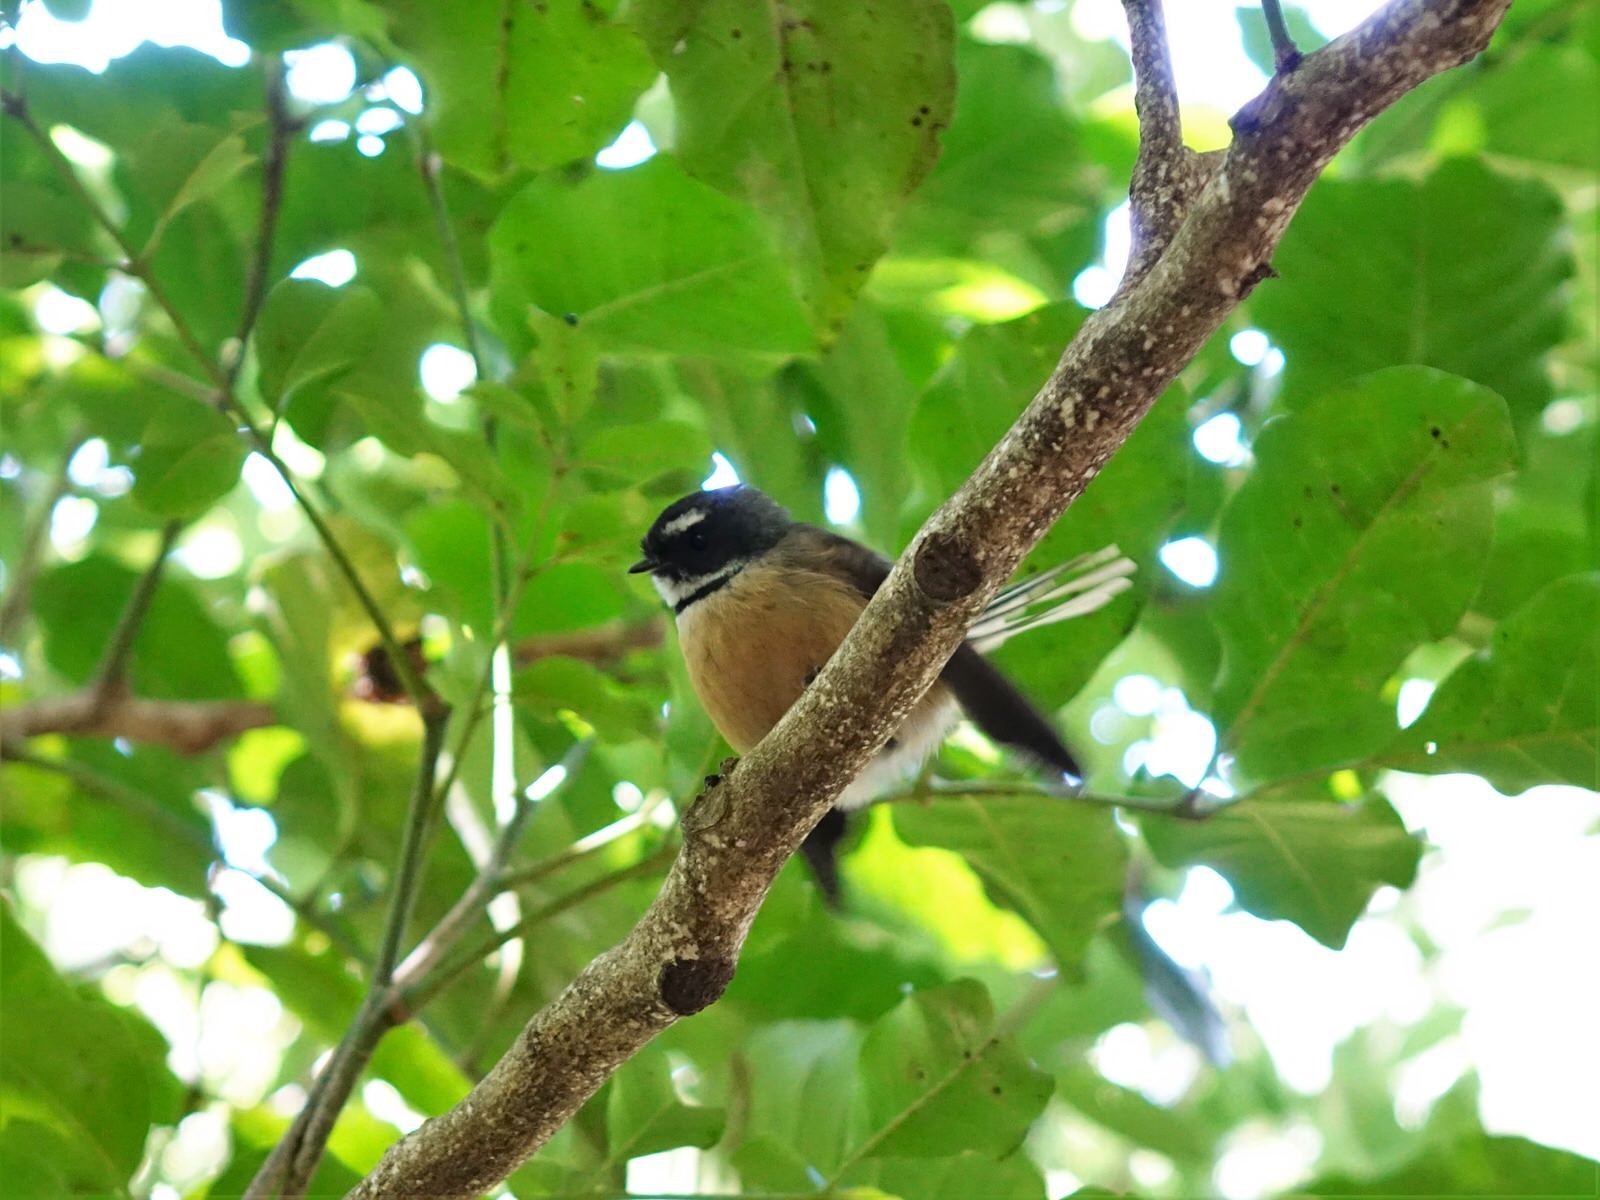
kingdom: Animalia
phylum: Chordata
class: Aves
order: Passeriformes
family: Rhipiduridae
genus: Rhipidura
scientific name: Rhipidura fuliginosa
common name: New zealand fantail
